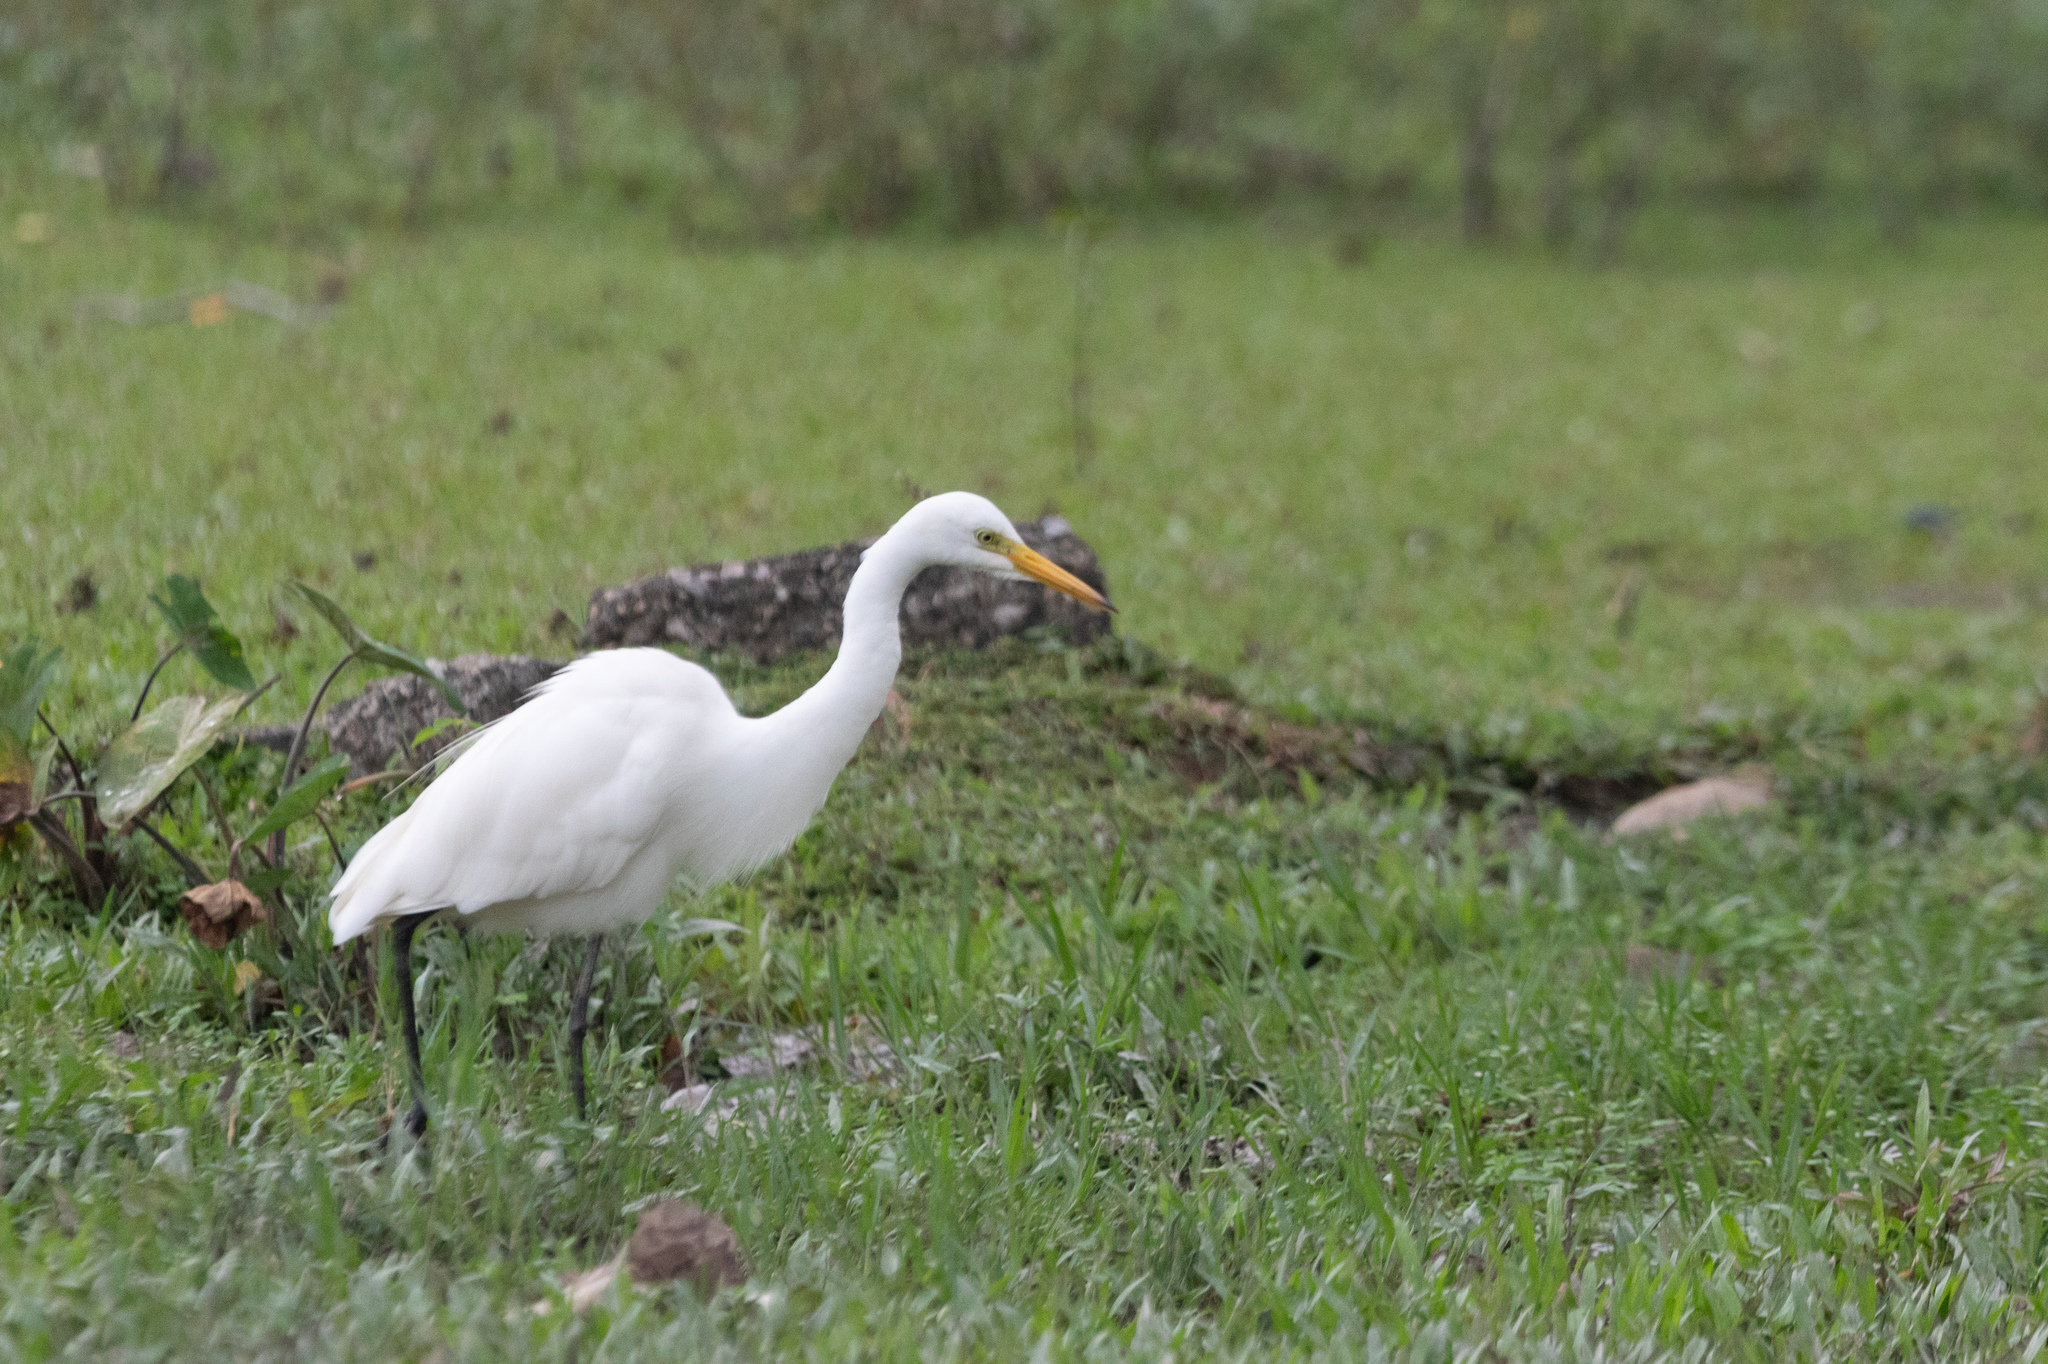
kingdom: Animalia
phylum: Chordata
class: Aves
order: Pelecaniformes
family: Ardeidae
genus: Egretta
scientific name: Egretta intermedia
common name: Intermediate egret
